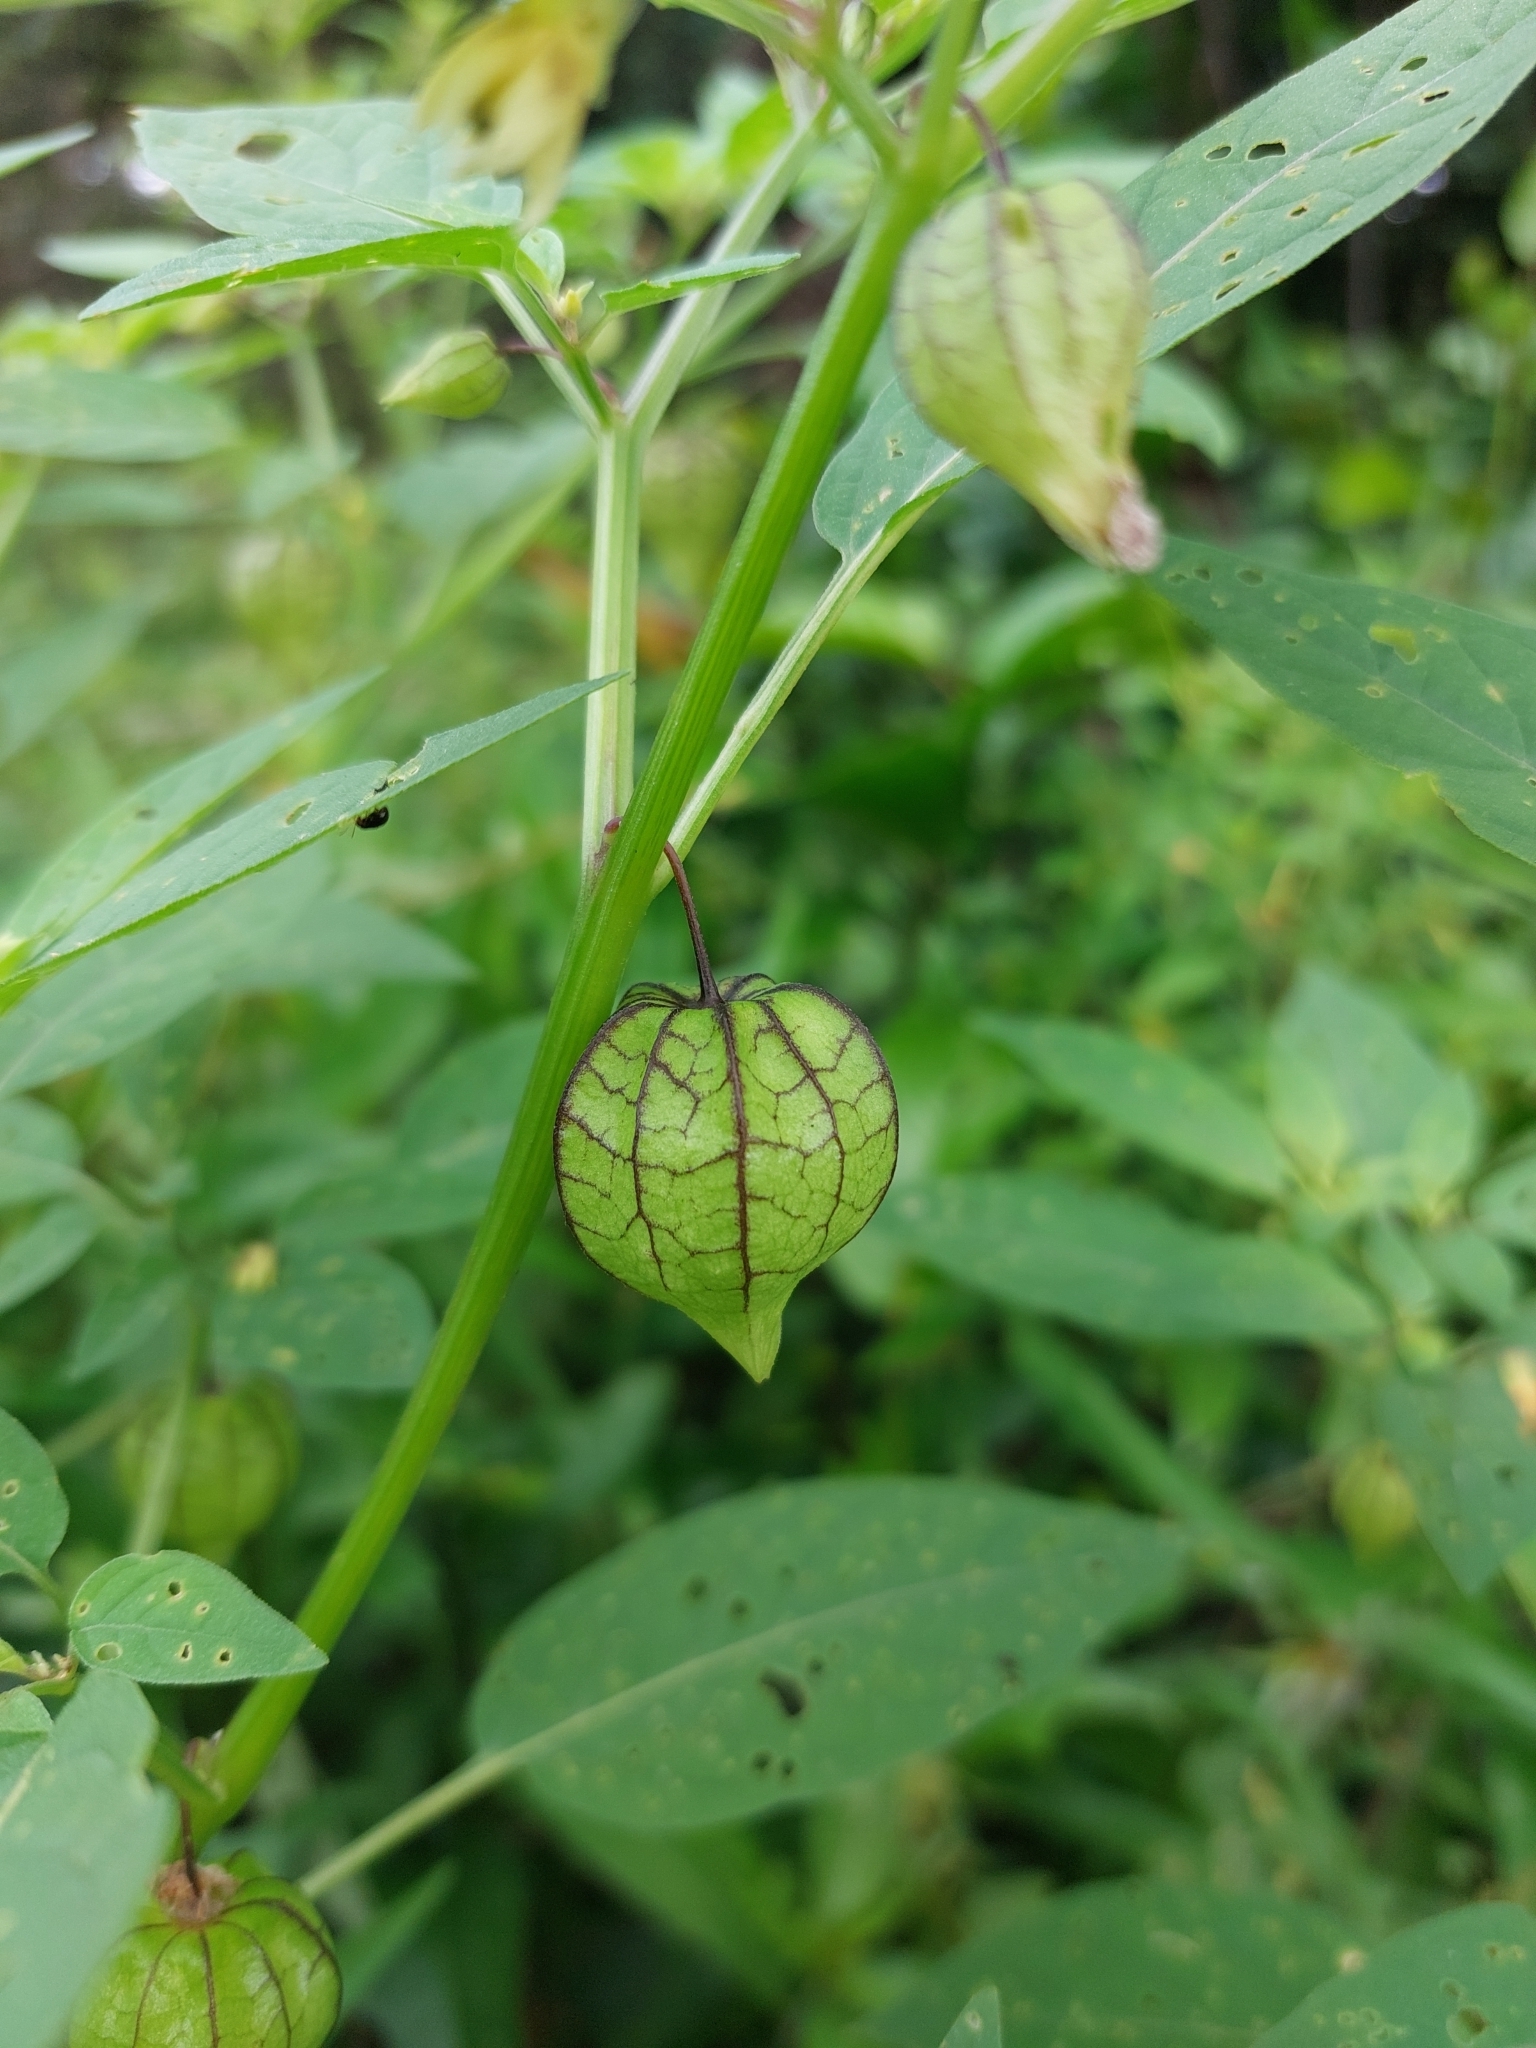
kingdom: Plantae
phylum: Tracheophyta
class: Magnoliopsida
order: Solanales
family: Solanaceae
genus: Physalis
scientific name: Physalis angulata
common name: Angular winter-cherry
